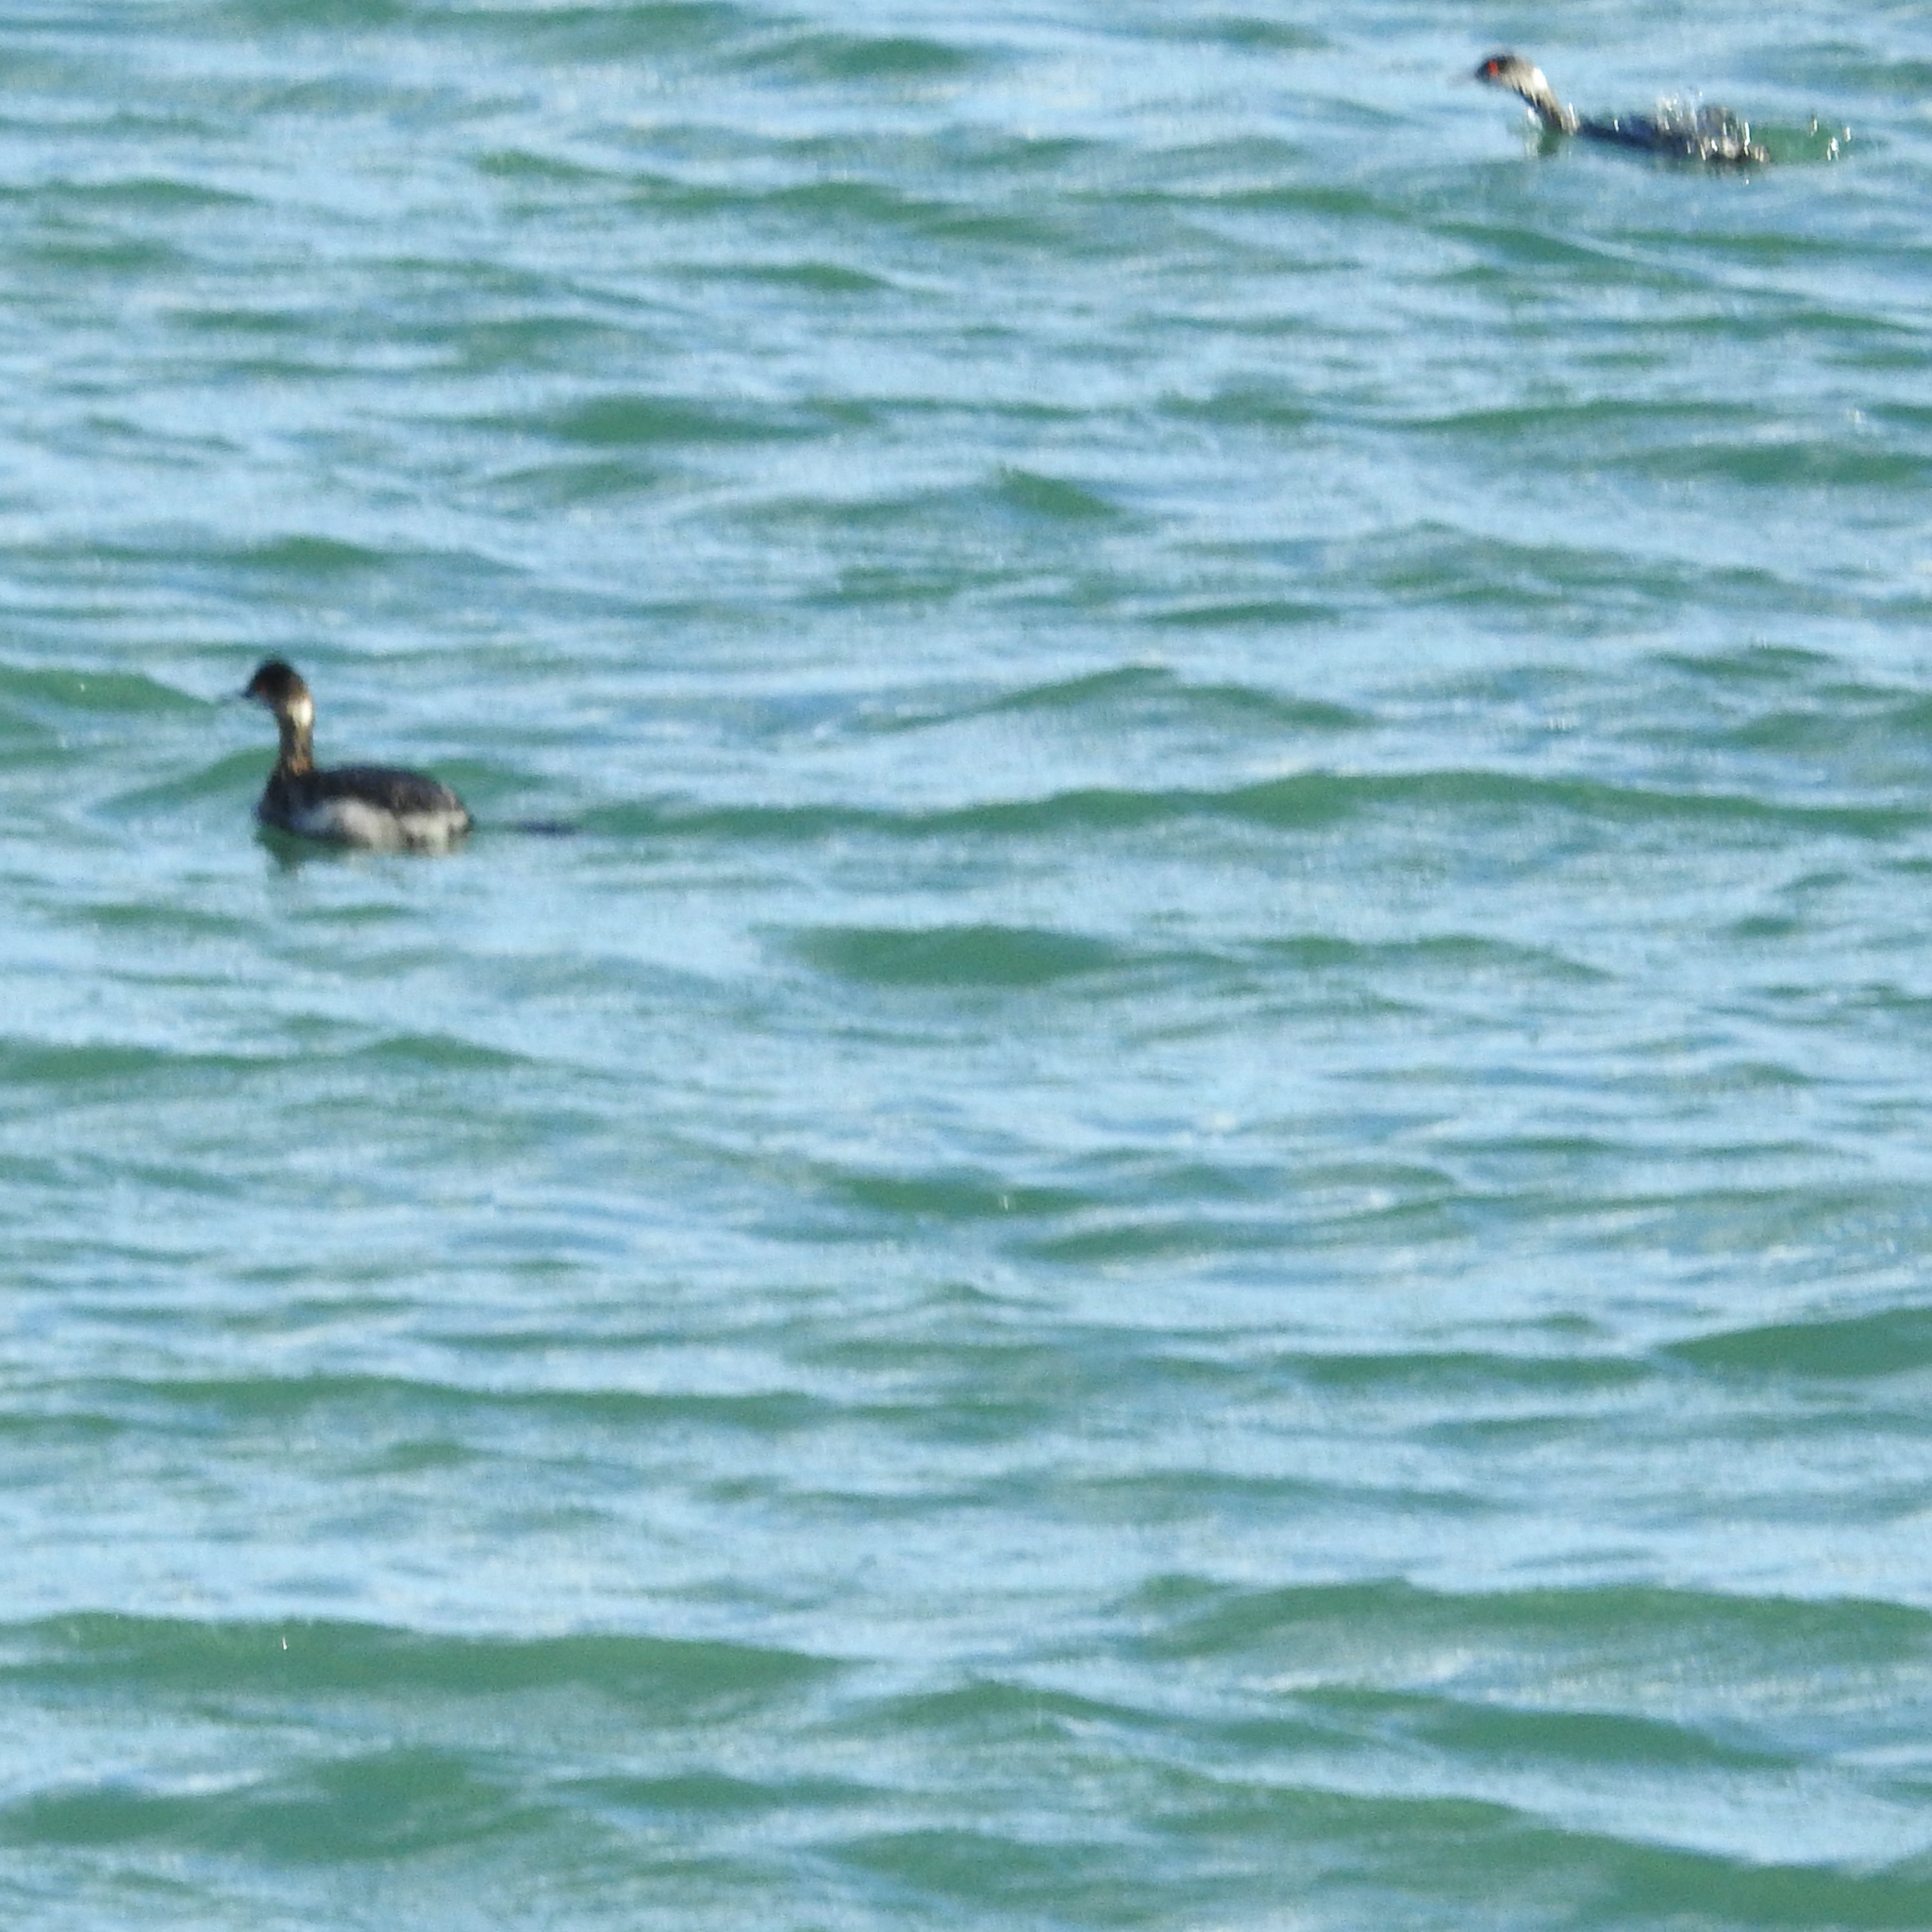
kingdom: Animalia
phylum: Chordata
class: Aves
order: Podicipediformes
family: Podicipedidae
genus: Podiceps
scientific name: Podiceps nigricollis
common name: Black-necked grebe
